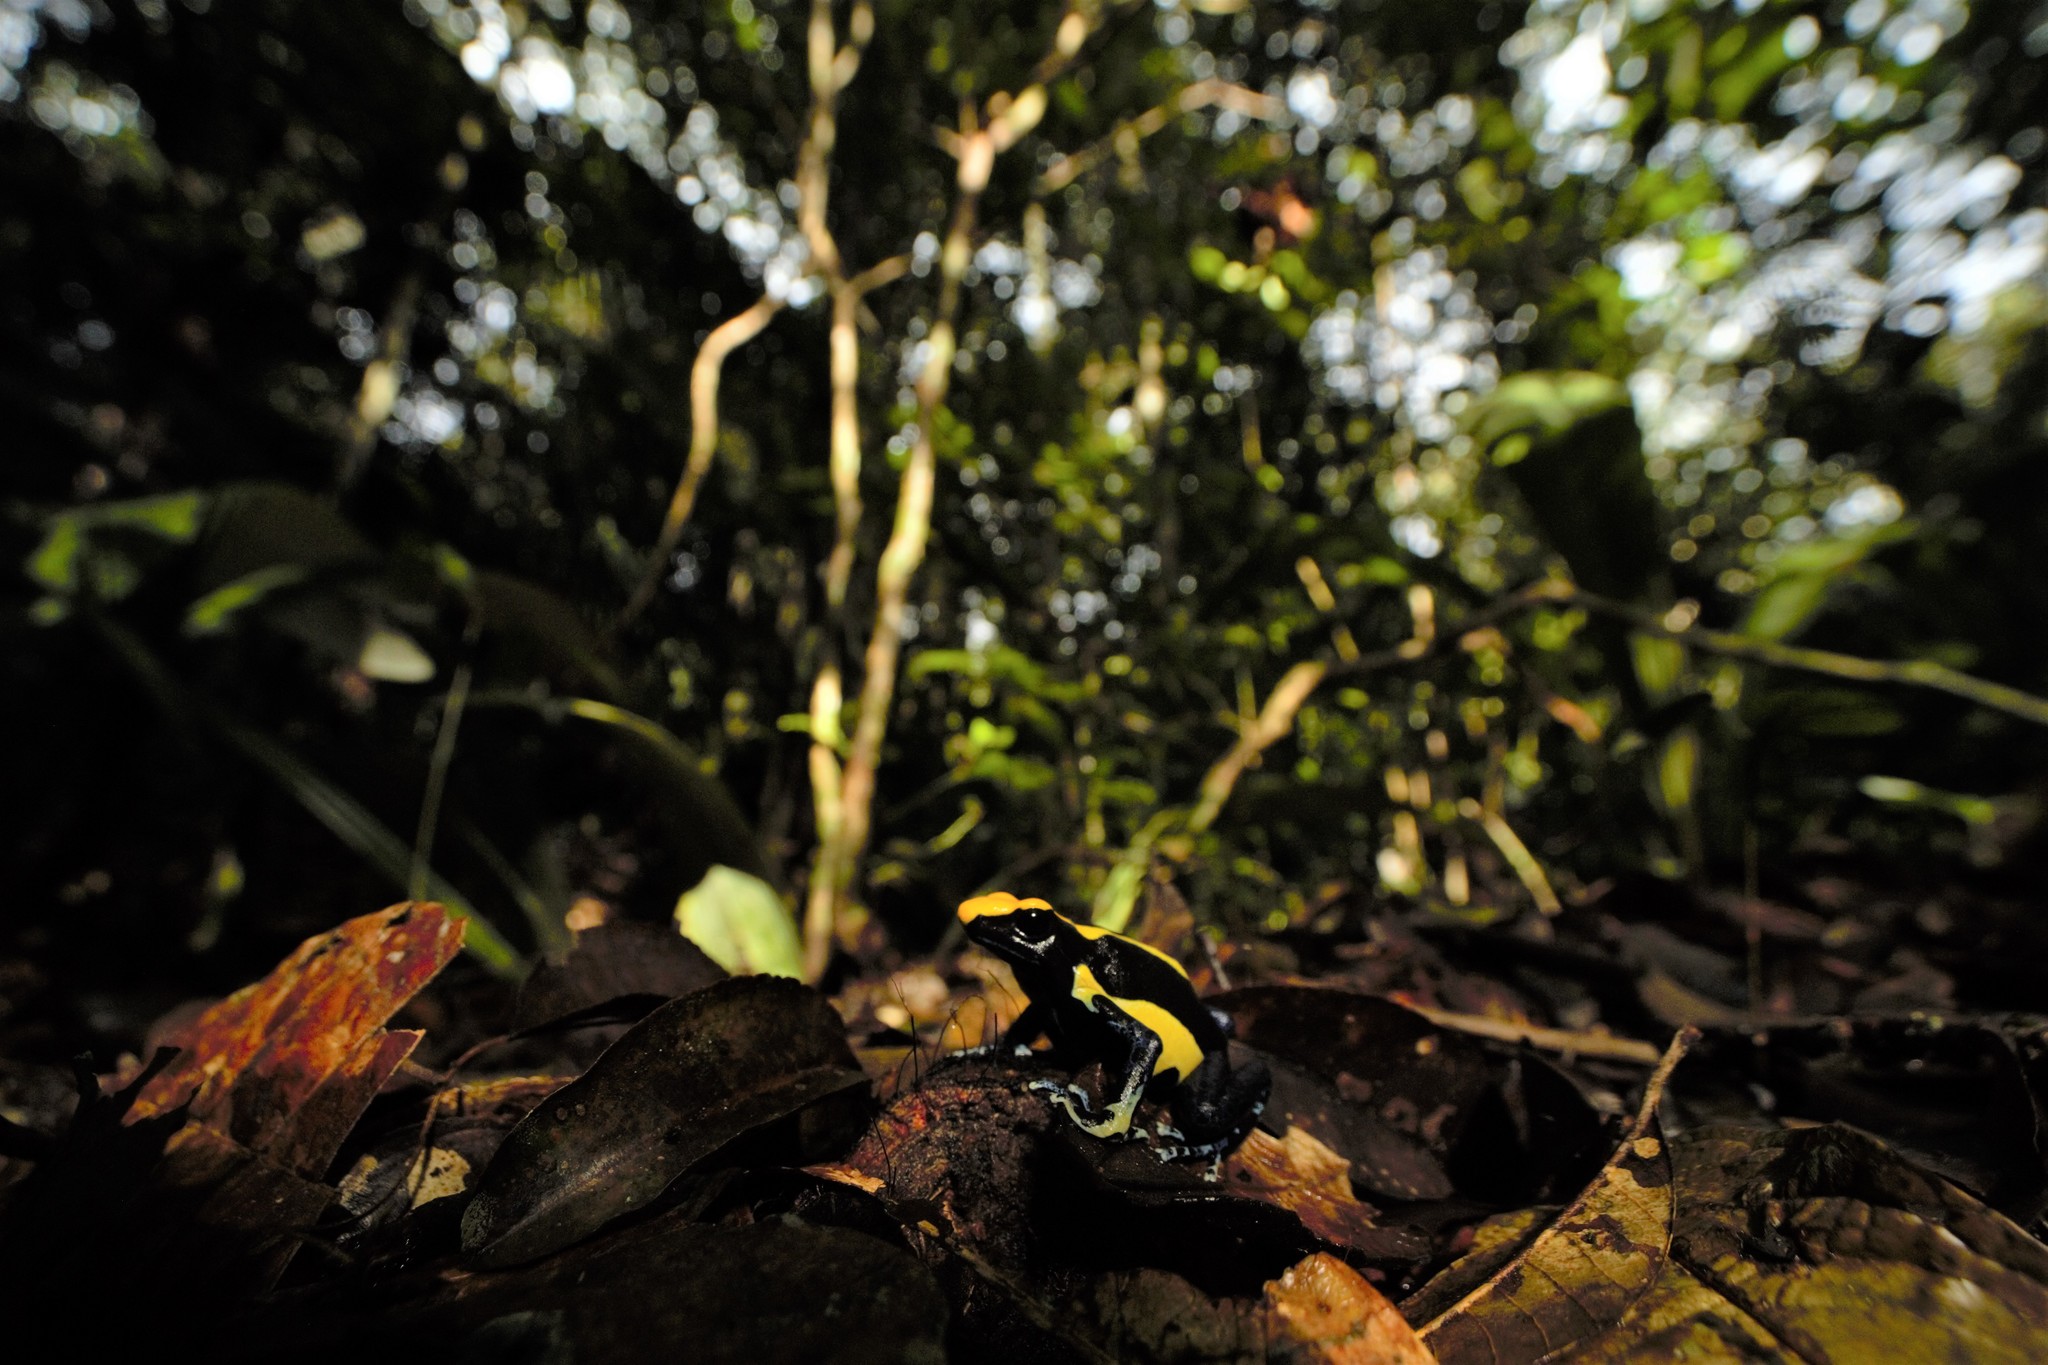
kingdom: Animalia
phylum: Chordata
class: Amphibia
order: Anura
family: Dendrobatidae
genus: Dendrobates
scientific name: Dendrobates tinctorius
